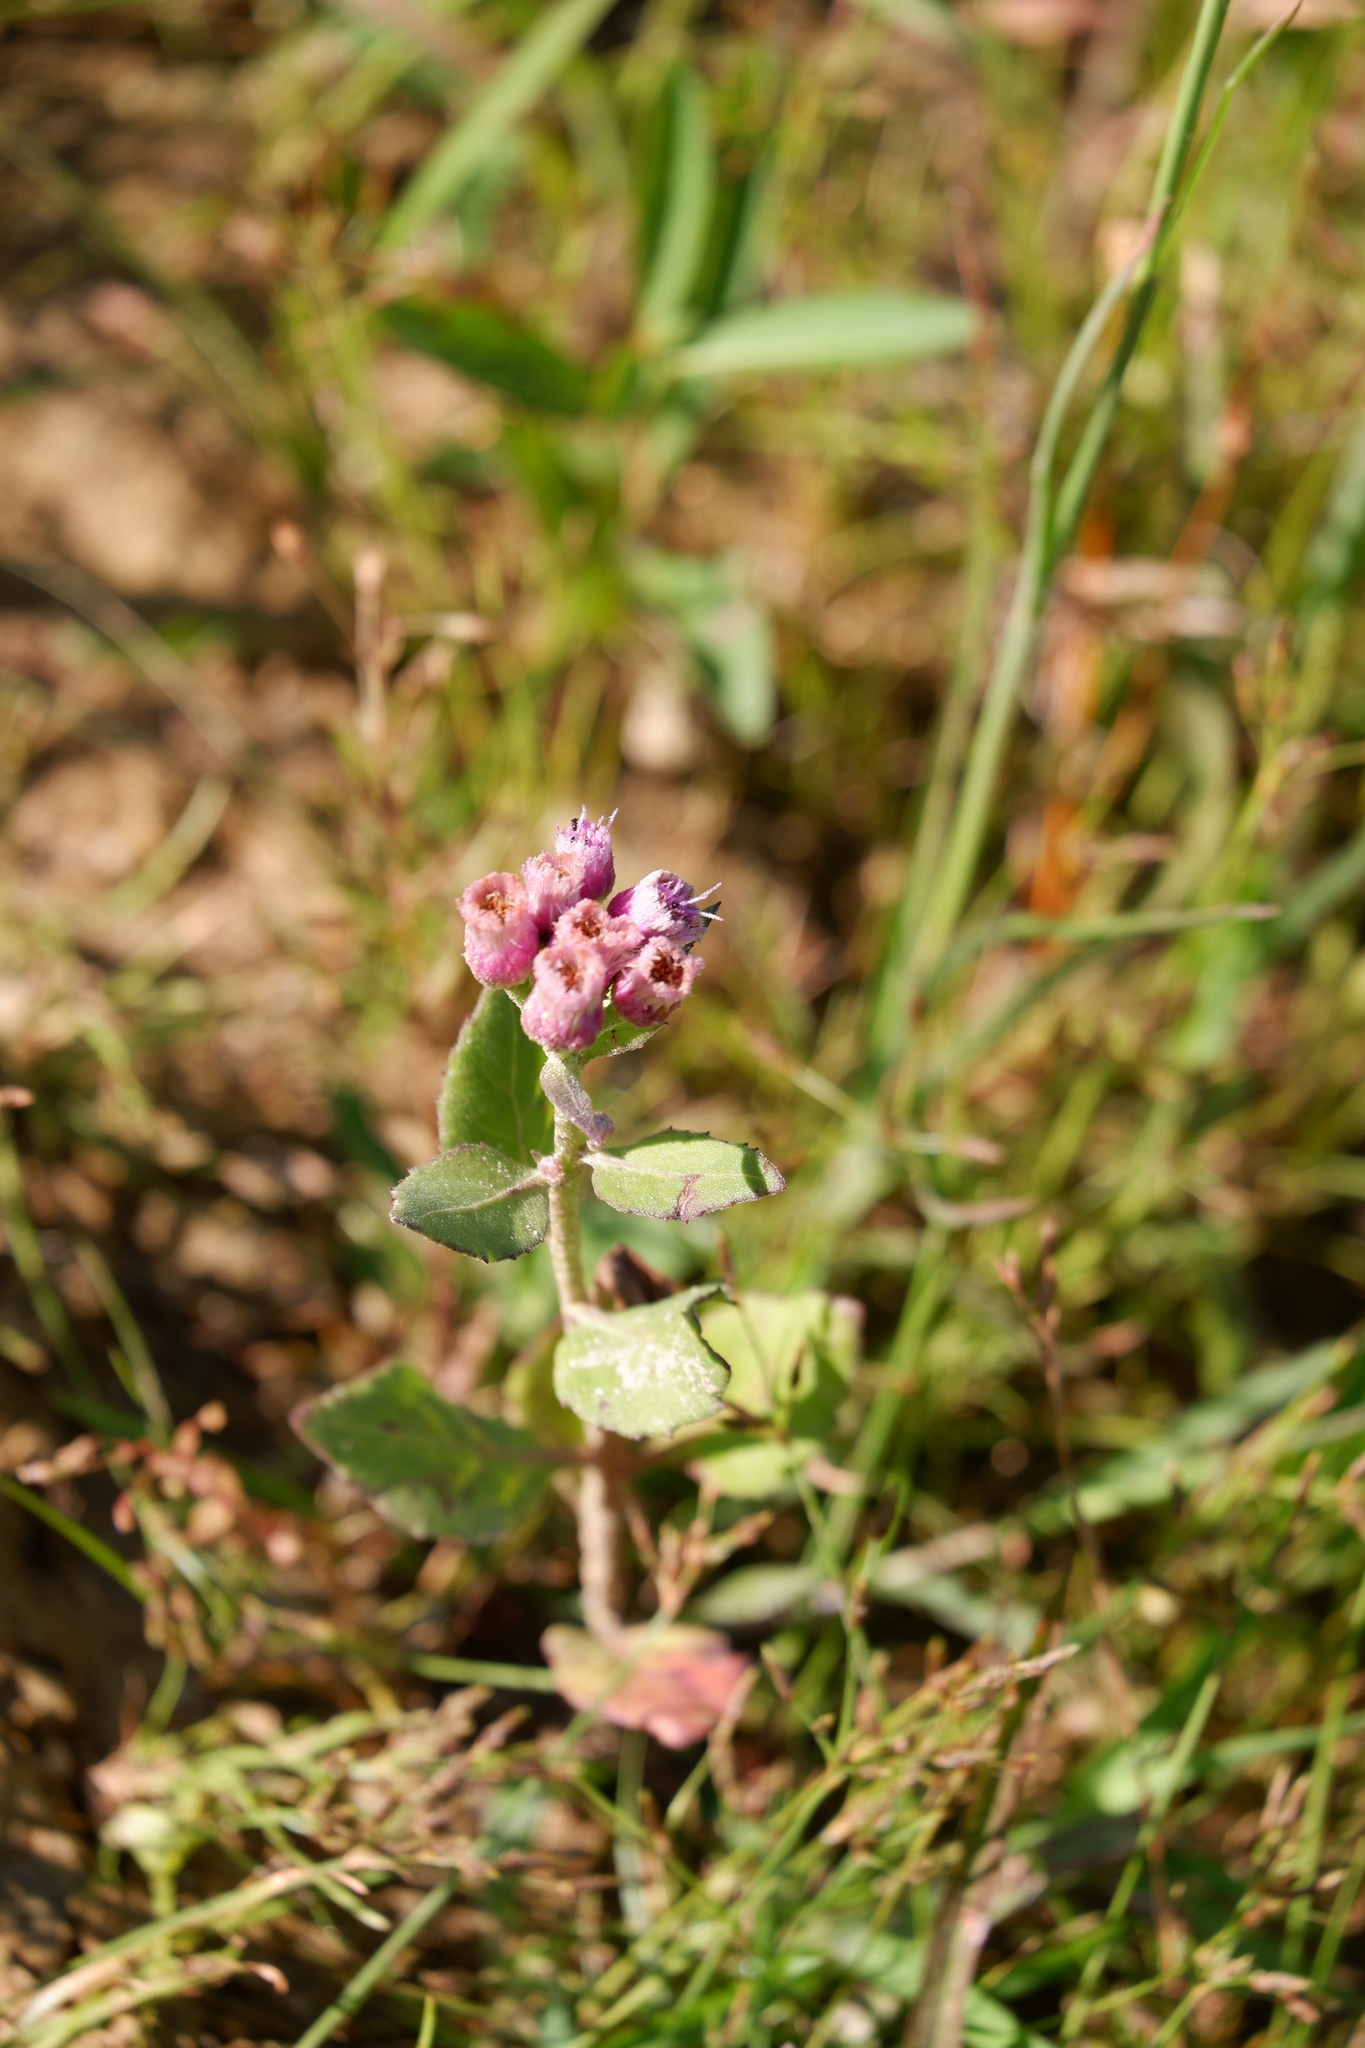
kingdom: Plantae
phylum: Tracheophyta
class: Magnoliopsida
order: Asterales
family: Asteraceae
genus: Pluchea
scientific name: Pluchea odorata
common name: Saltmarsh fleabane
